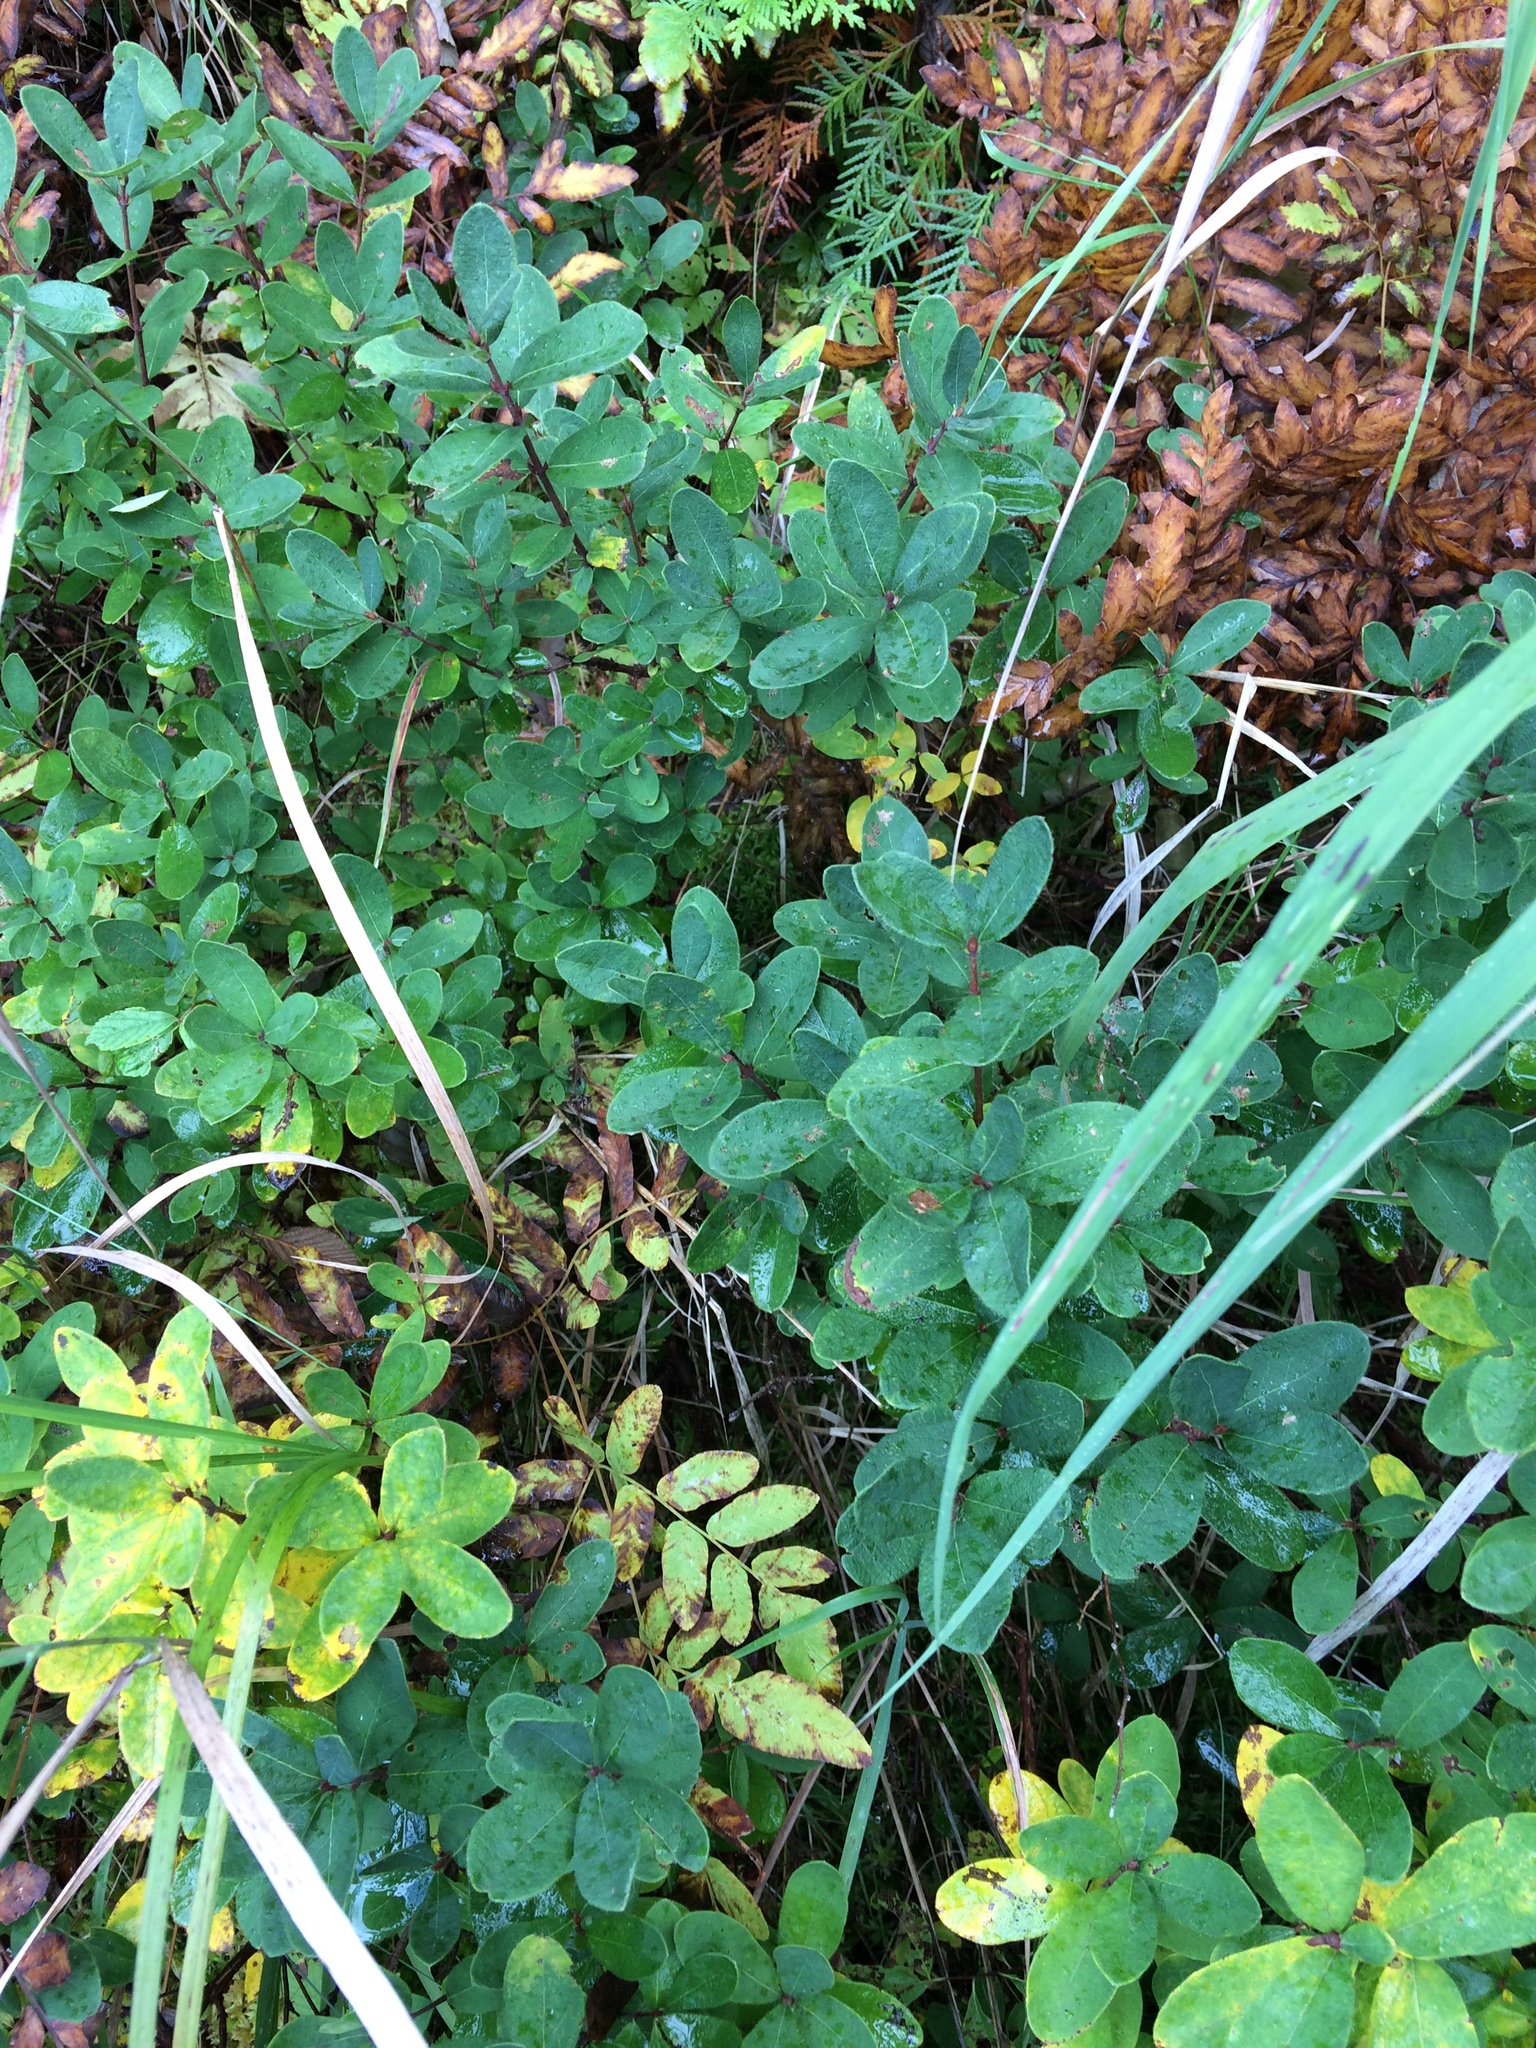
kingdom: Plantae
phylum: Tracheophyta
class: Magnoliopsida
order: Dipsacales
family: Caprifoliaceae
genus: Lonicera
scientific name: Lonicera villosa
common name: Mountain fly-honeysuckle
